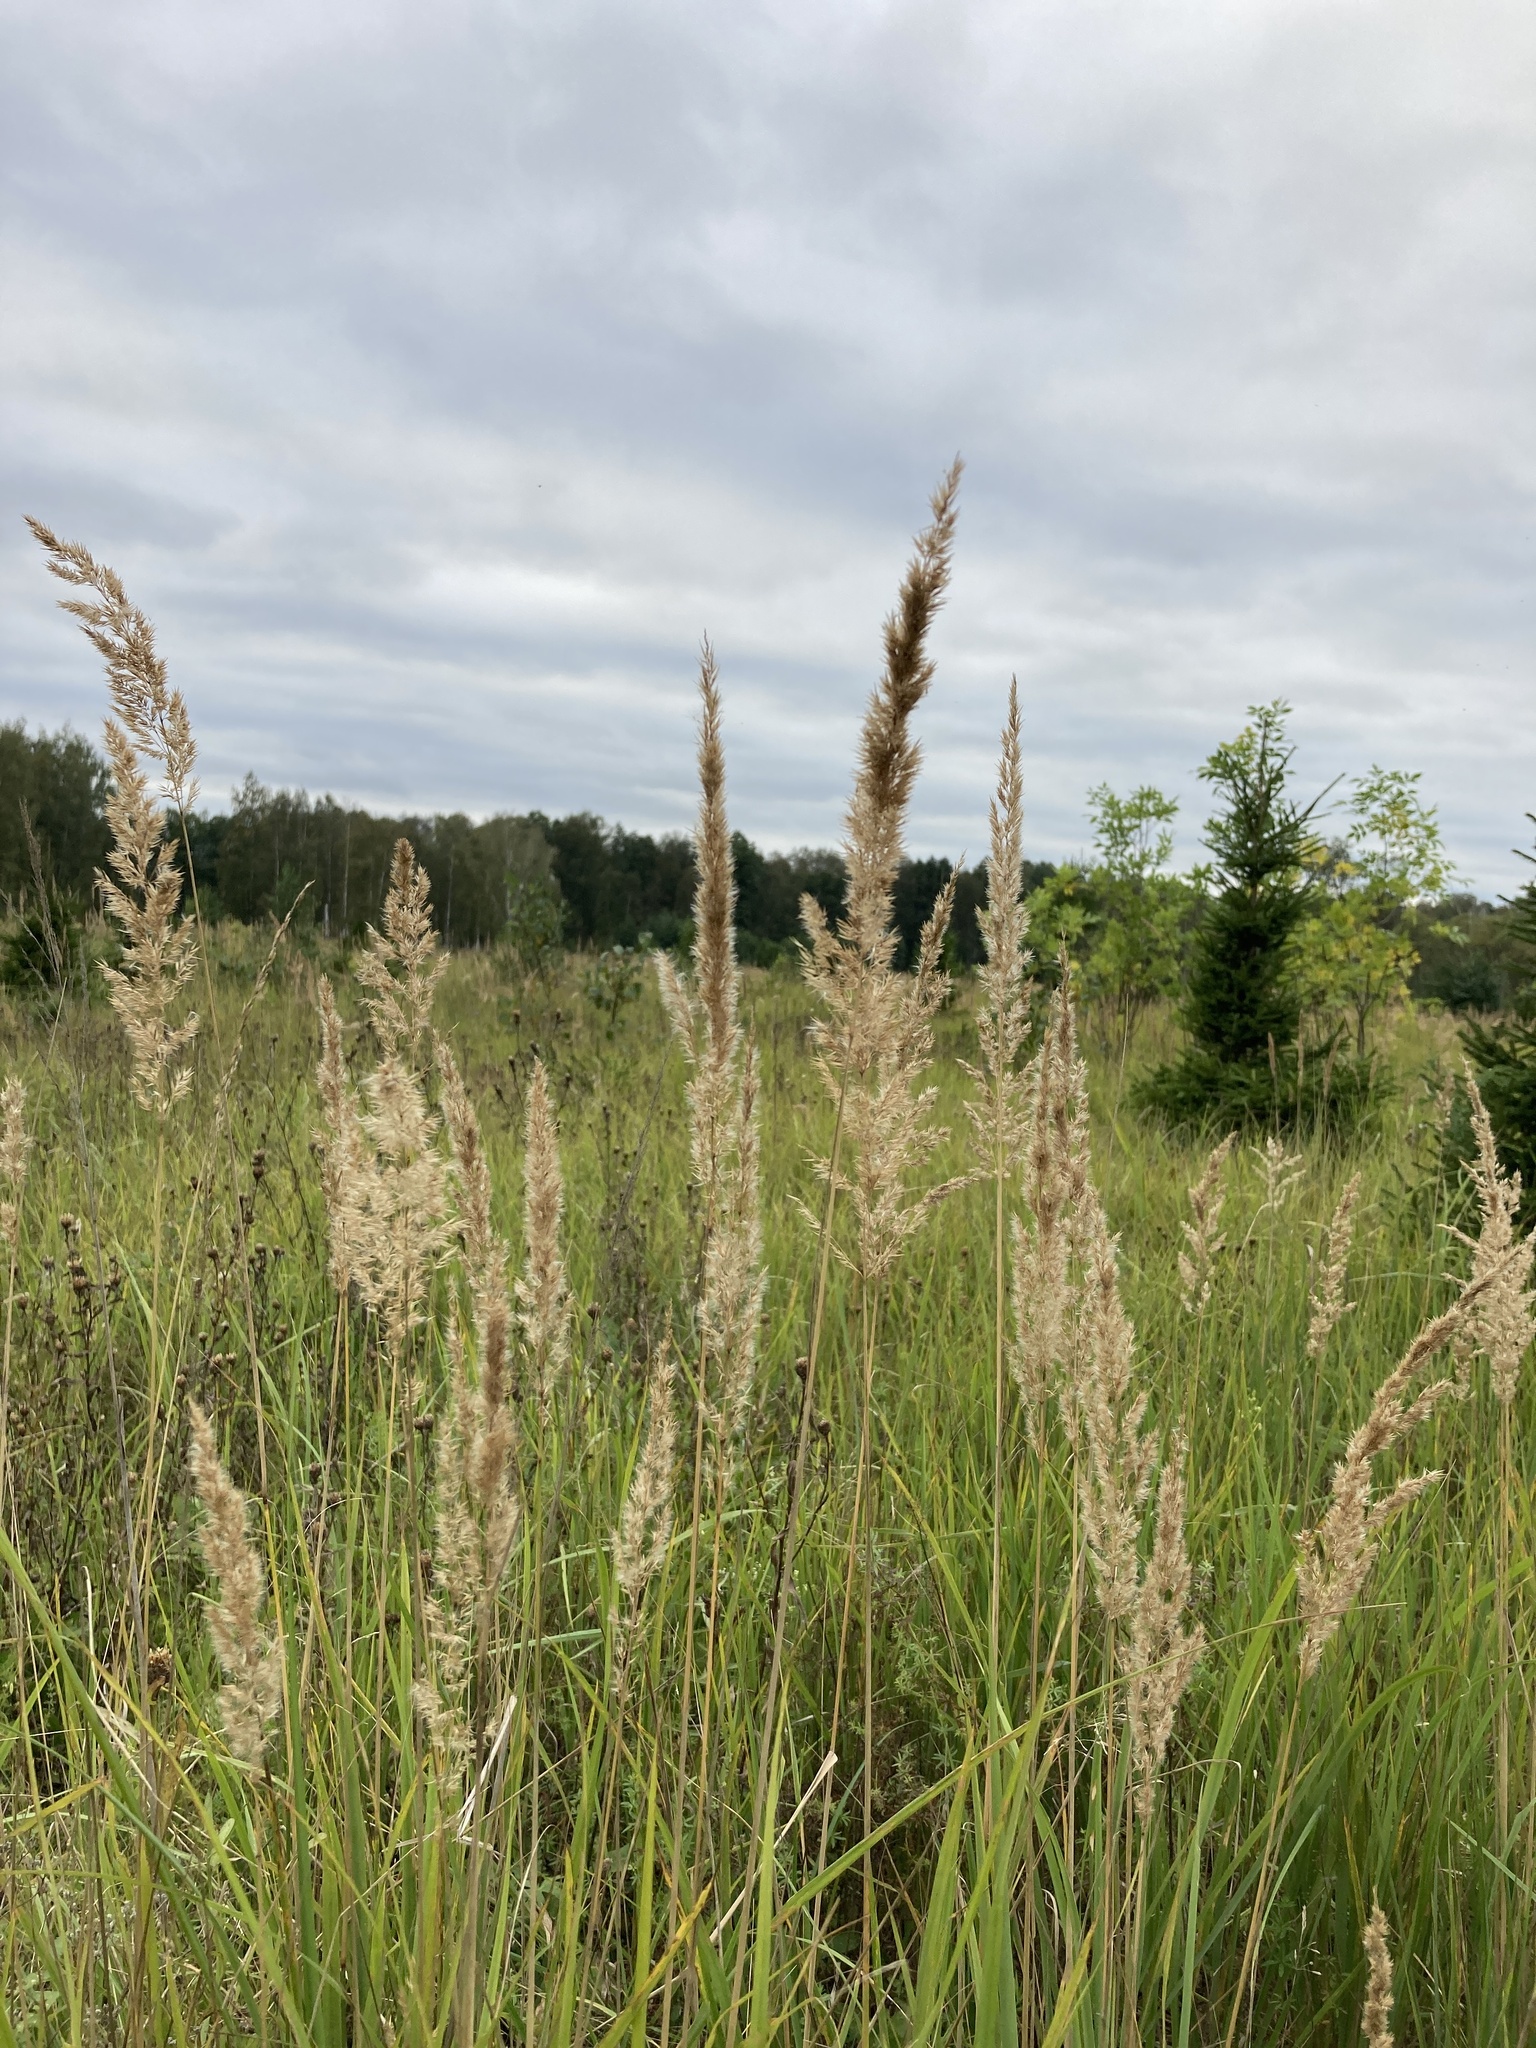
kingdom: Plantae
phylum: Tracheophyta
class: Liliopsida
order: Poales
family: Poaceae
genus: Calamagrostis
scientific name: Calamagrostis epigejos
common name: Wood small-reed
